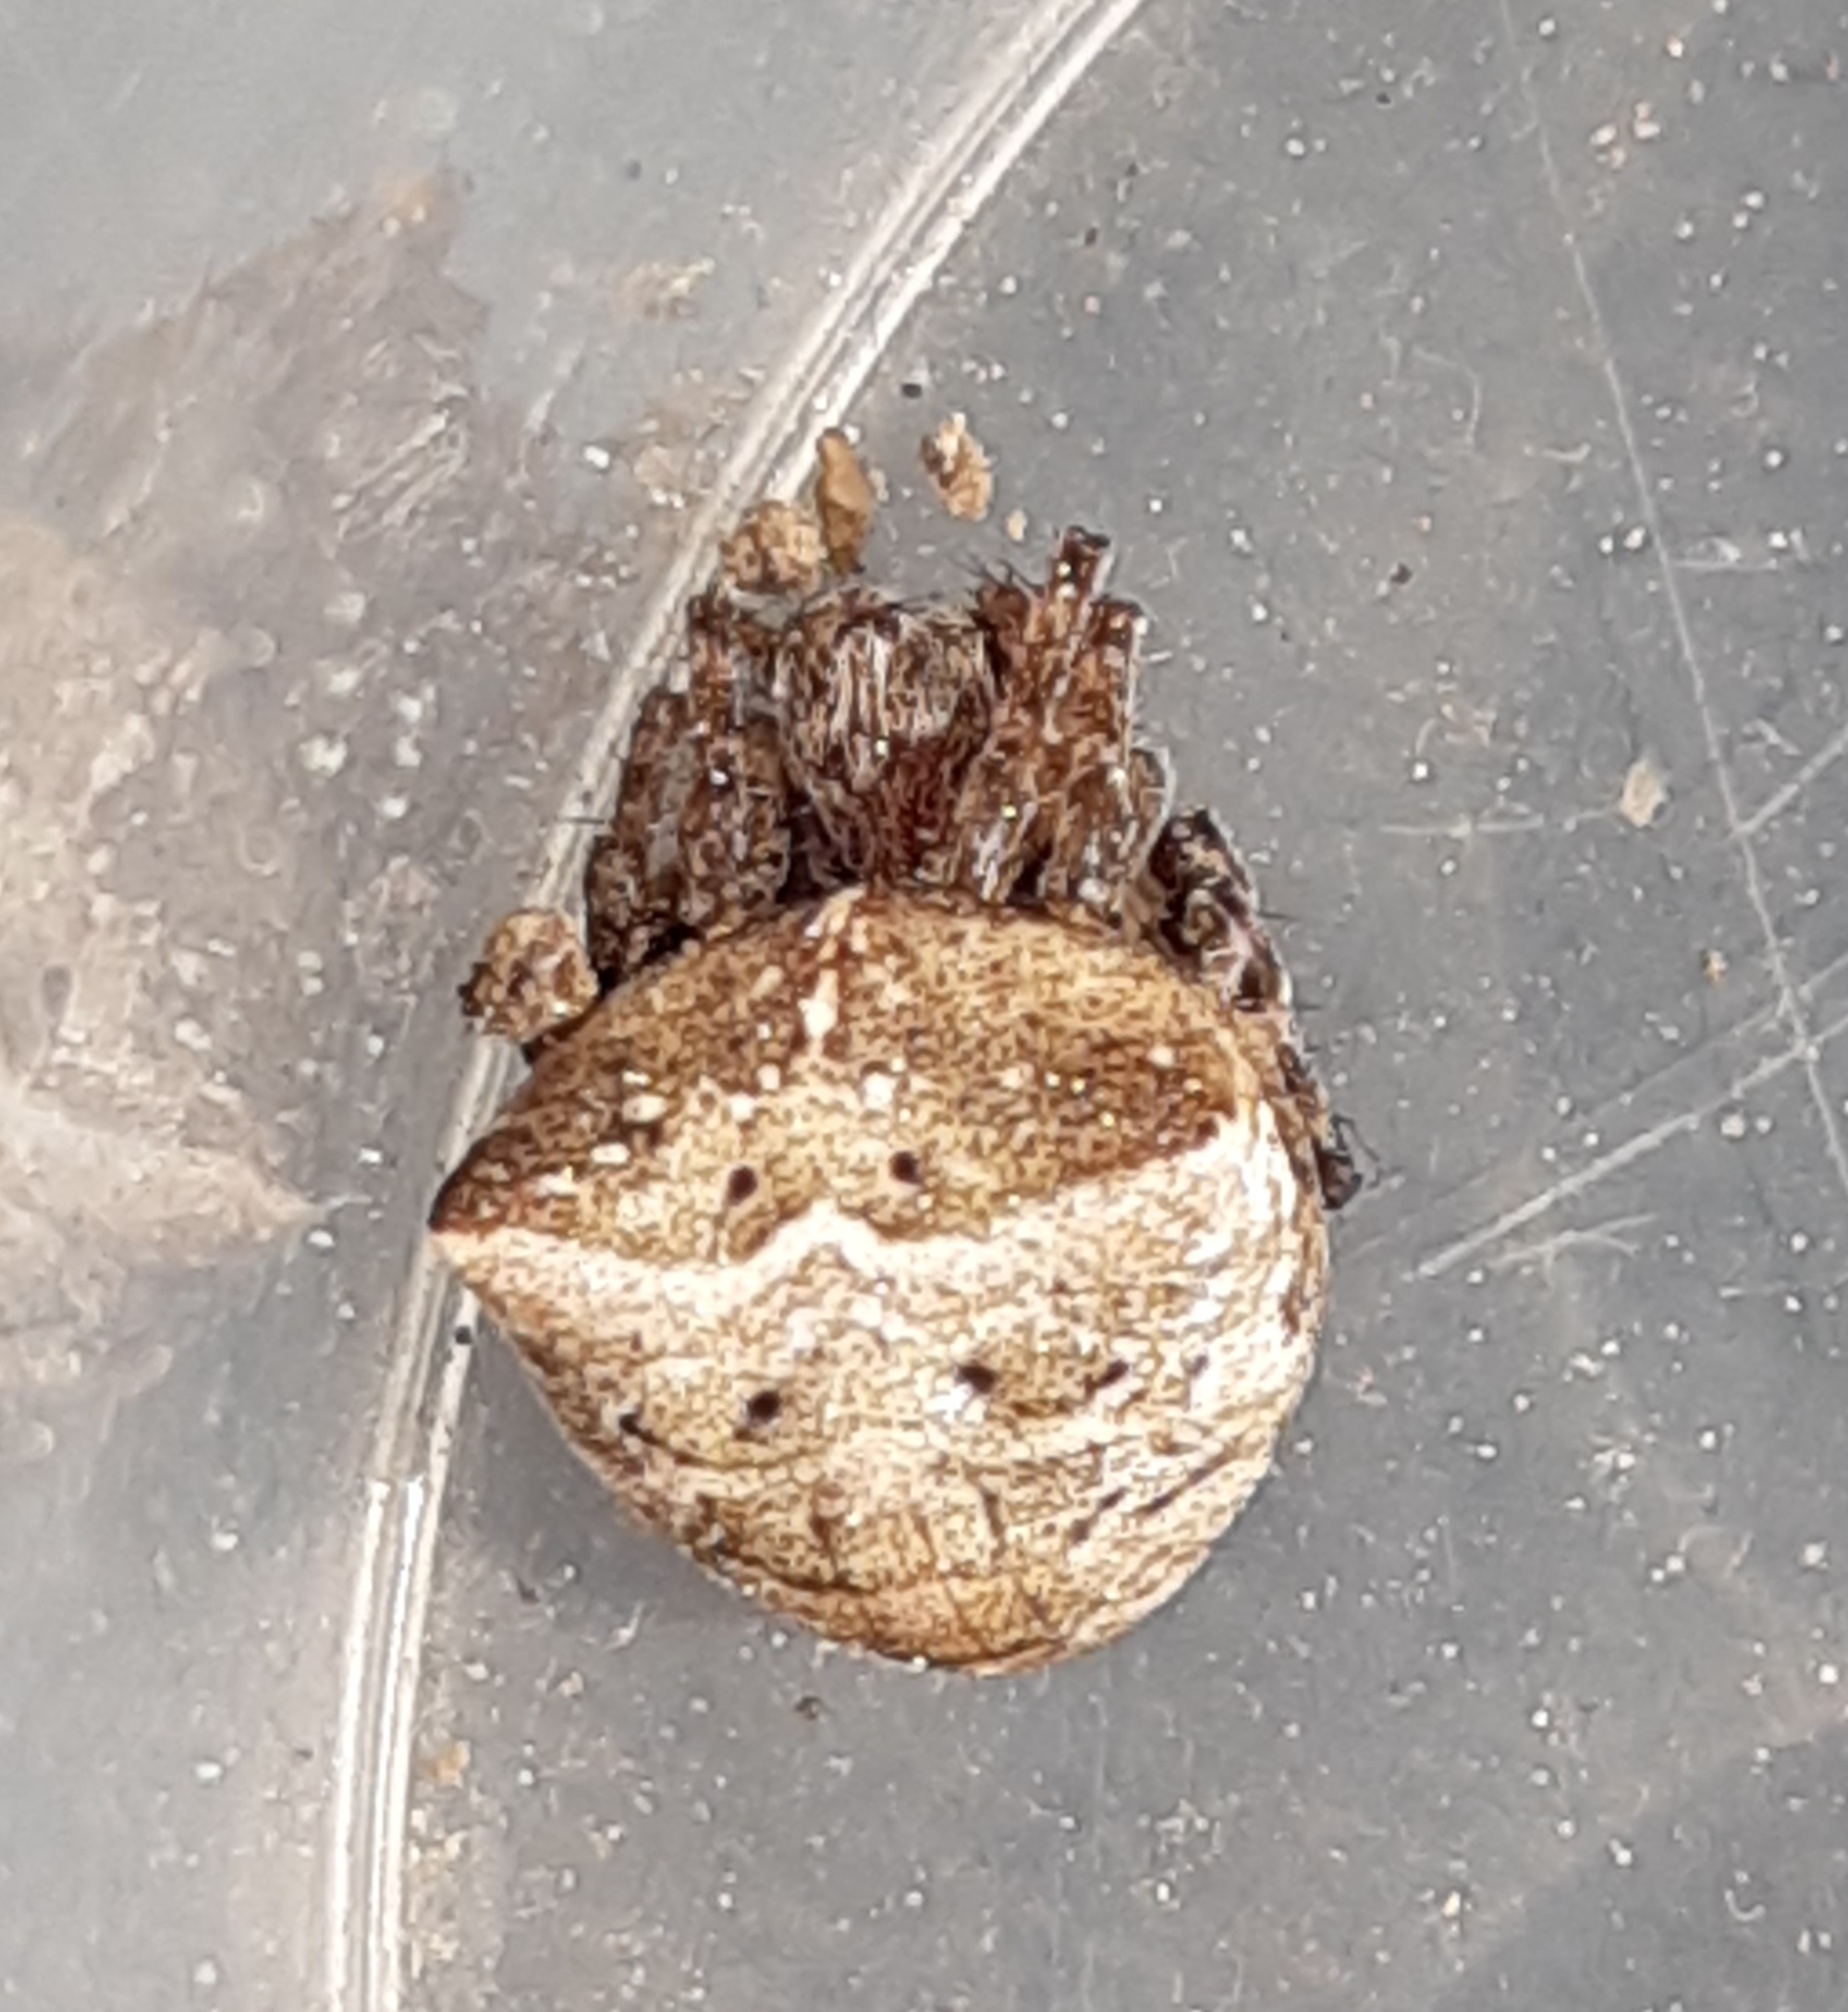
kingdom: Animalia
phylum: Arthropoda
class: Arachnida
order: Araneae
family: Araneidae
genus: Gibbaranea
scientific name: Gibbaranea bituberculata
